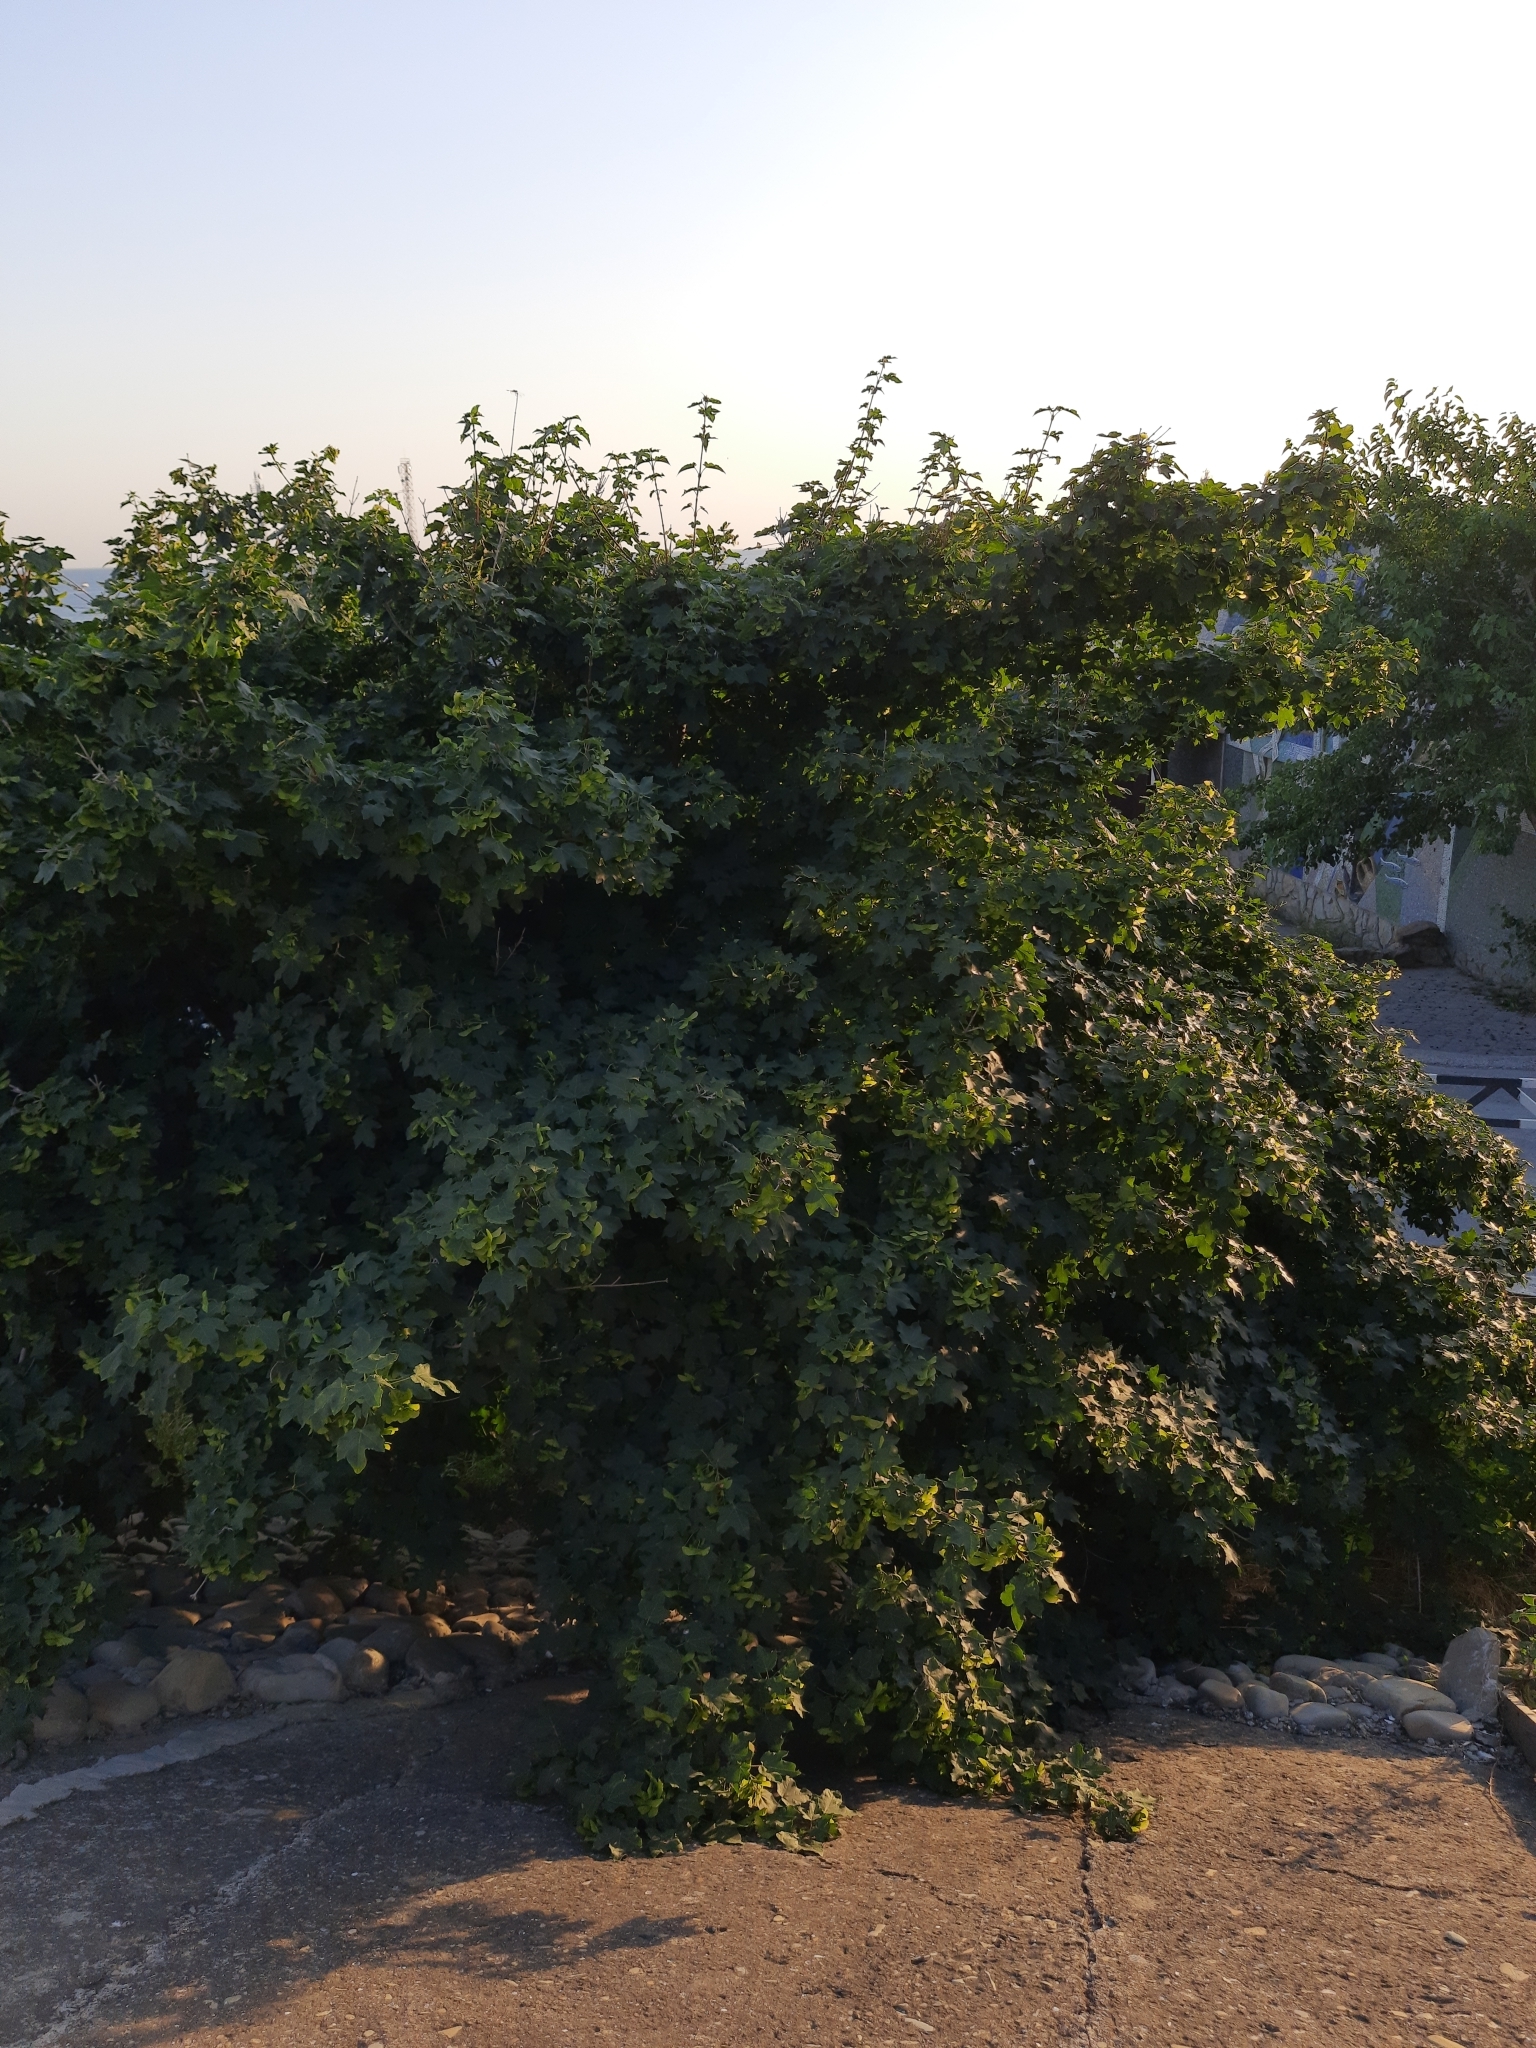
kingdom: Plantae
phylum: Tracheophyta
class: Magnoliopsida
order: Sapindales
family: Sapindaceae
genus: Acer
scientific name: Acer campestre
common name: Field maple
